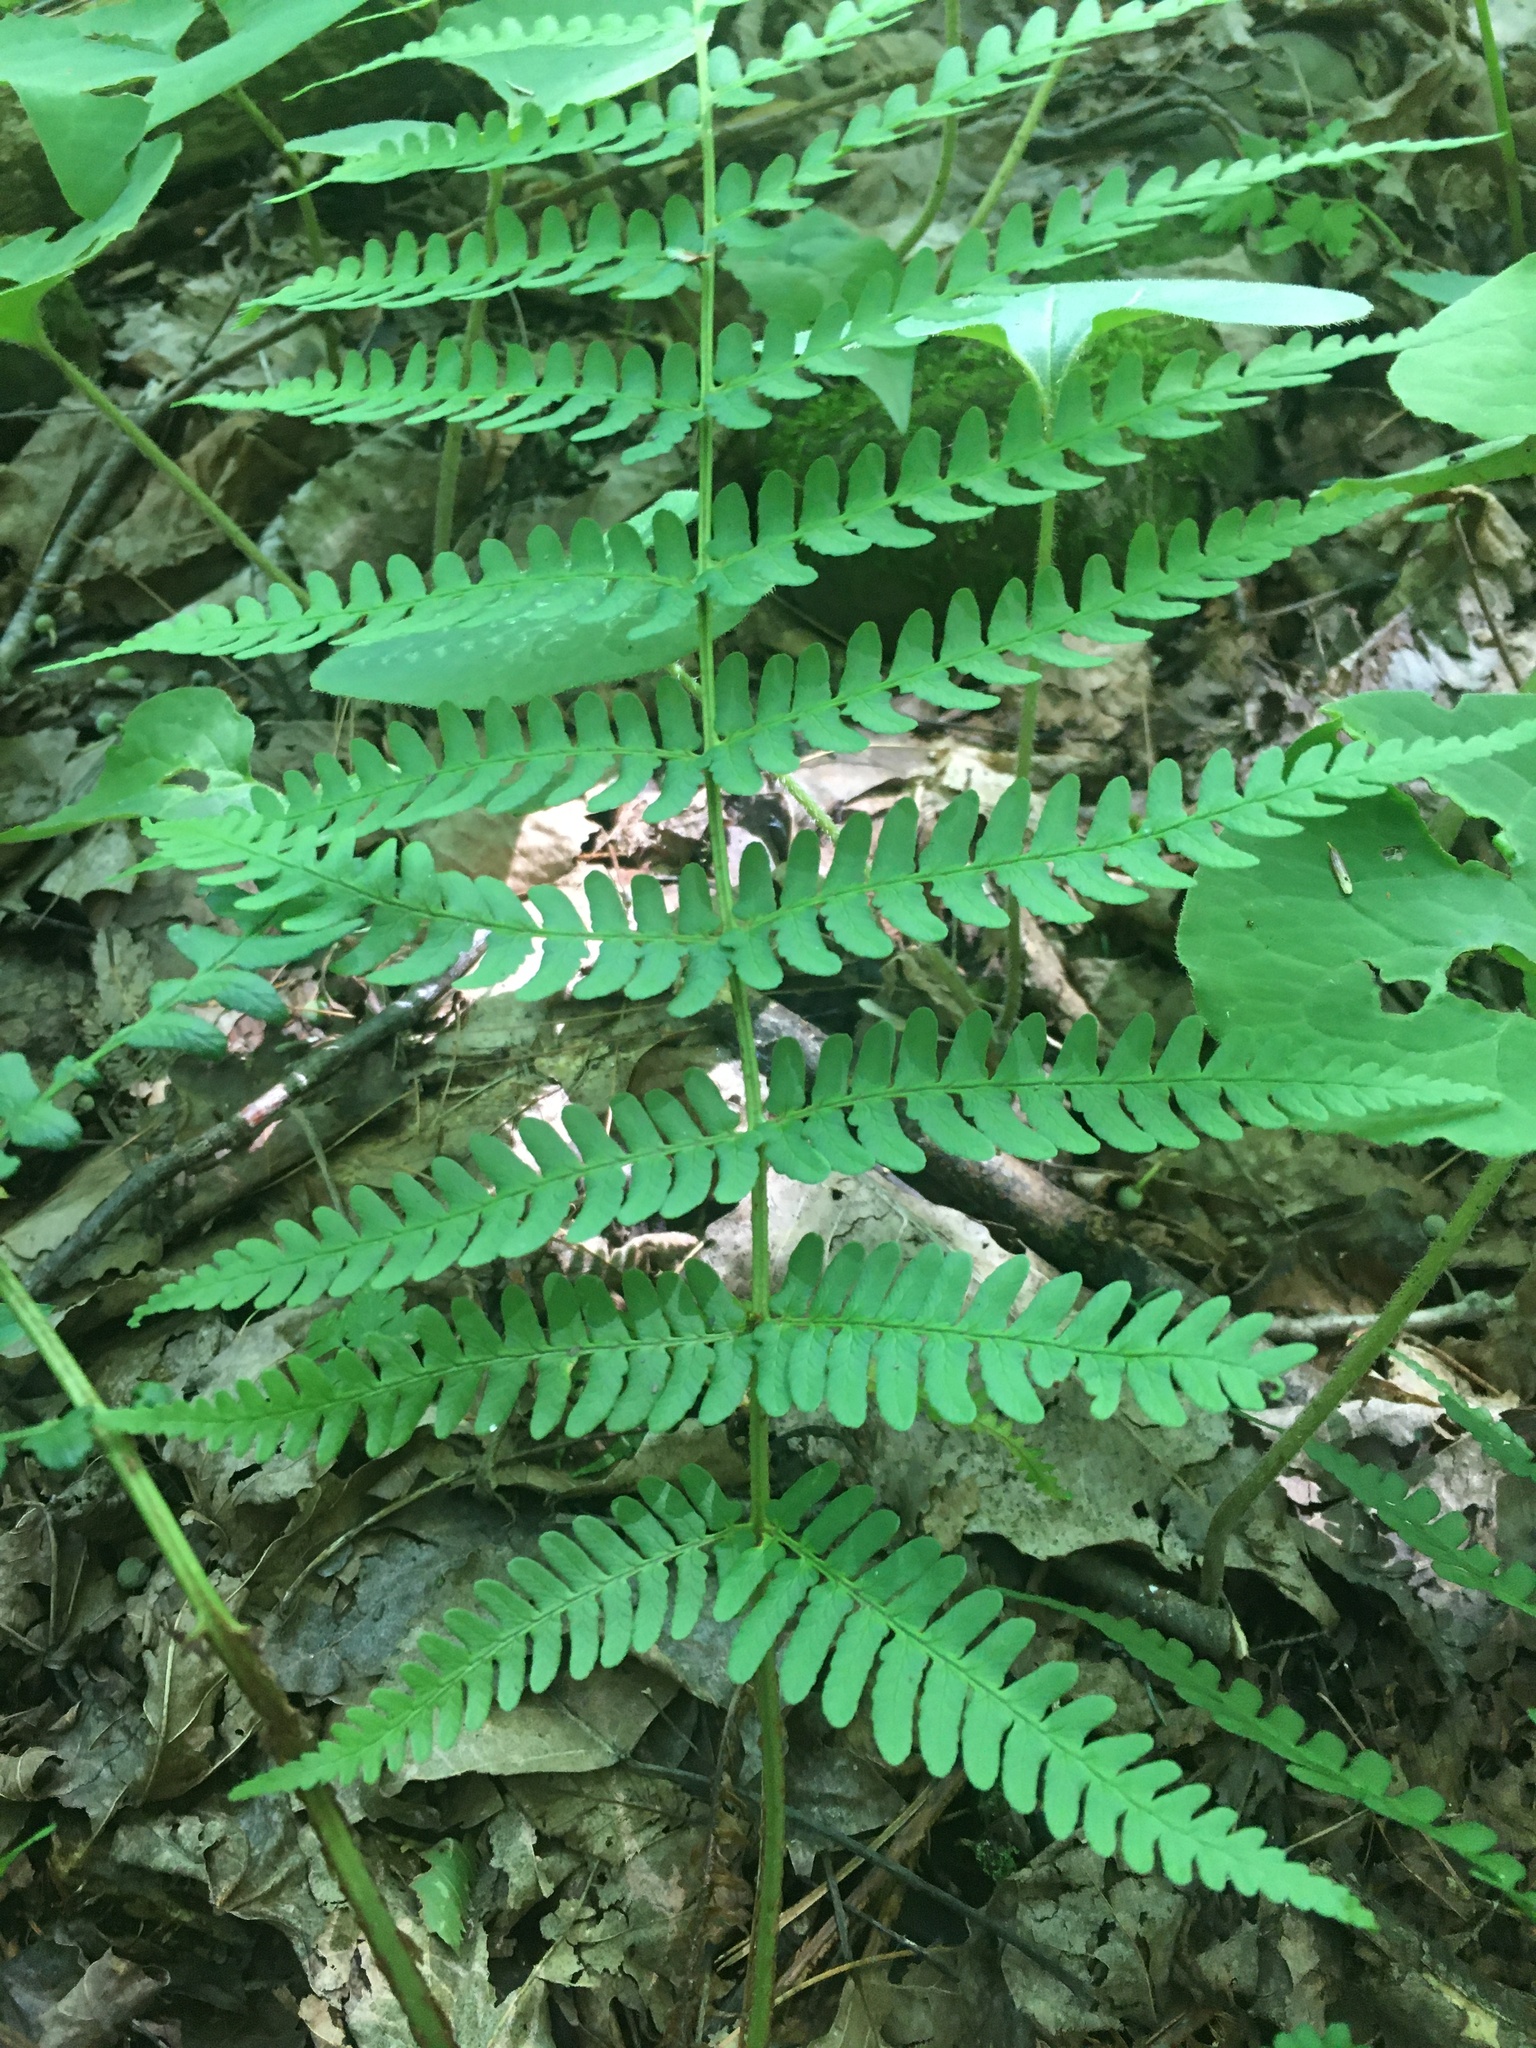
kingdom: Plantae
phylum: Tracheophyta
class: Polypodiopsida
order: Polypodiales
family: Dryopteridaceae
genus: Dryopteris
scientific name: Dryopteris marginalis
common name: Marginal wood fern
